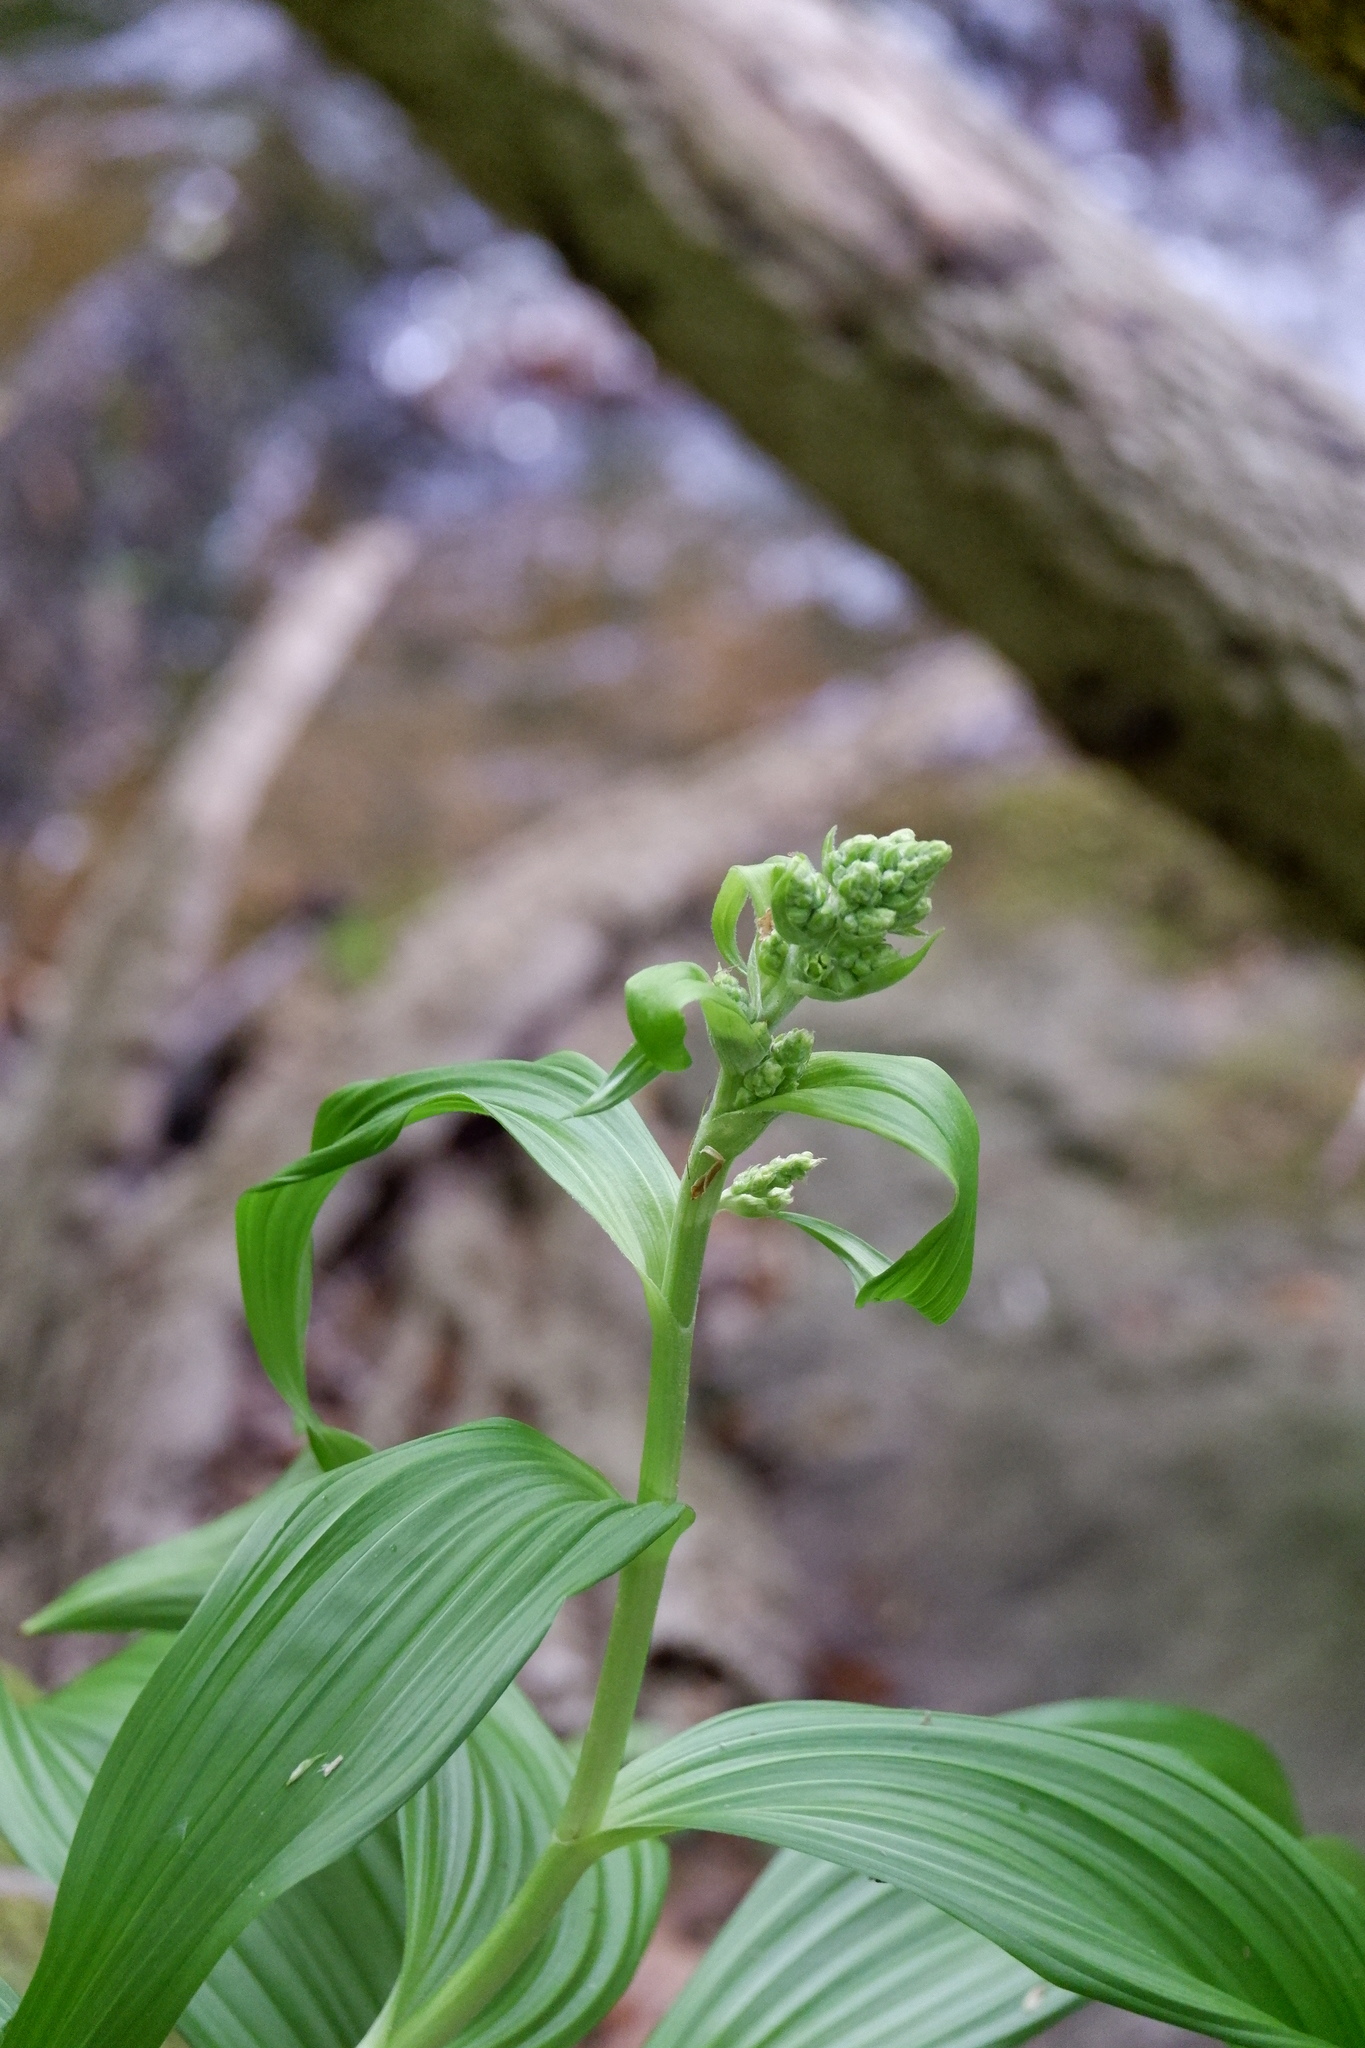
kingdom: Plantae
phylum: Tracheophyta
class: Liliopsida
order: Liliales
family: Melanthiaceae
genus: Veratrum
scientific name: Veratrum viride
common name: American false hellebore
